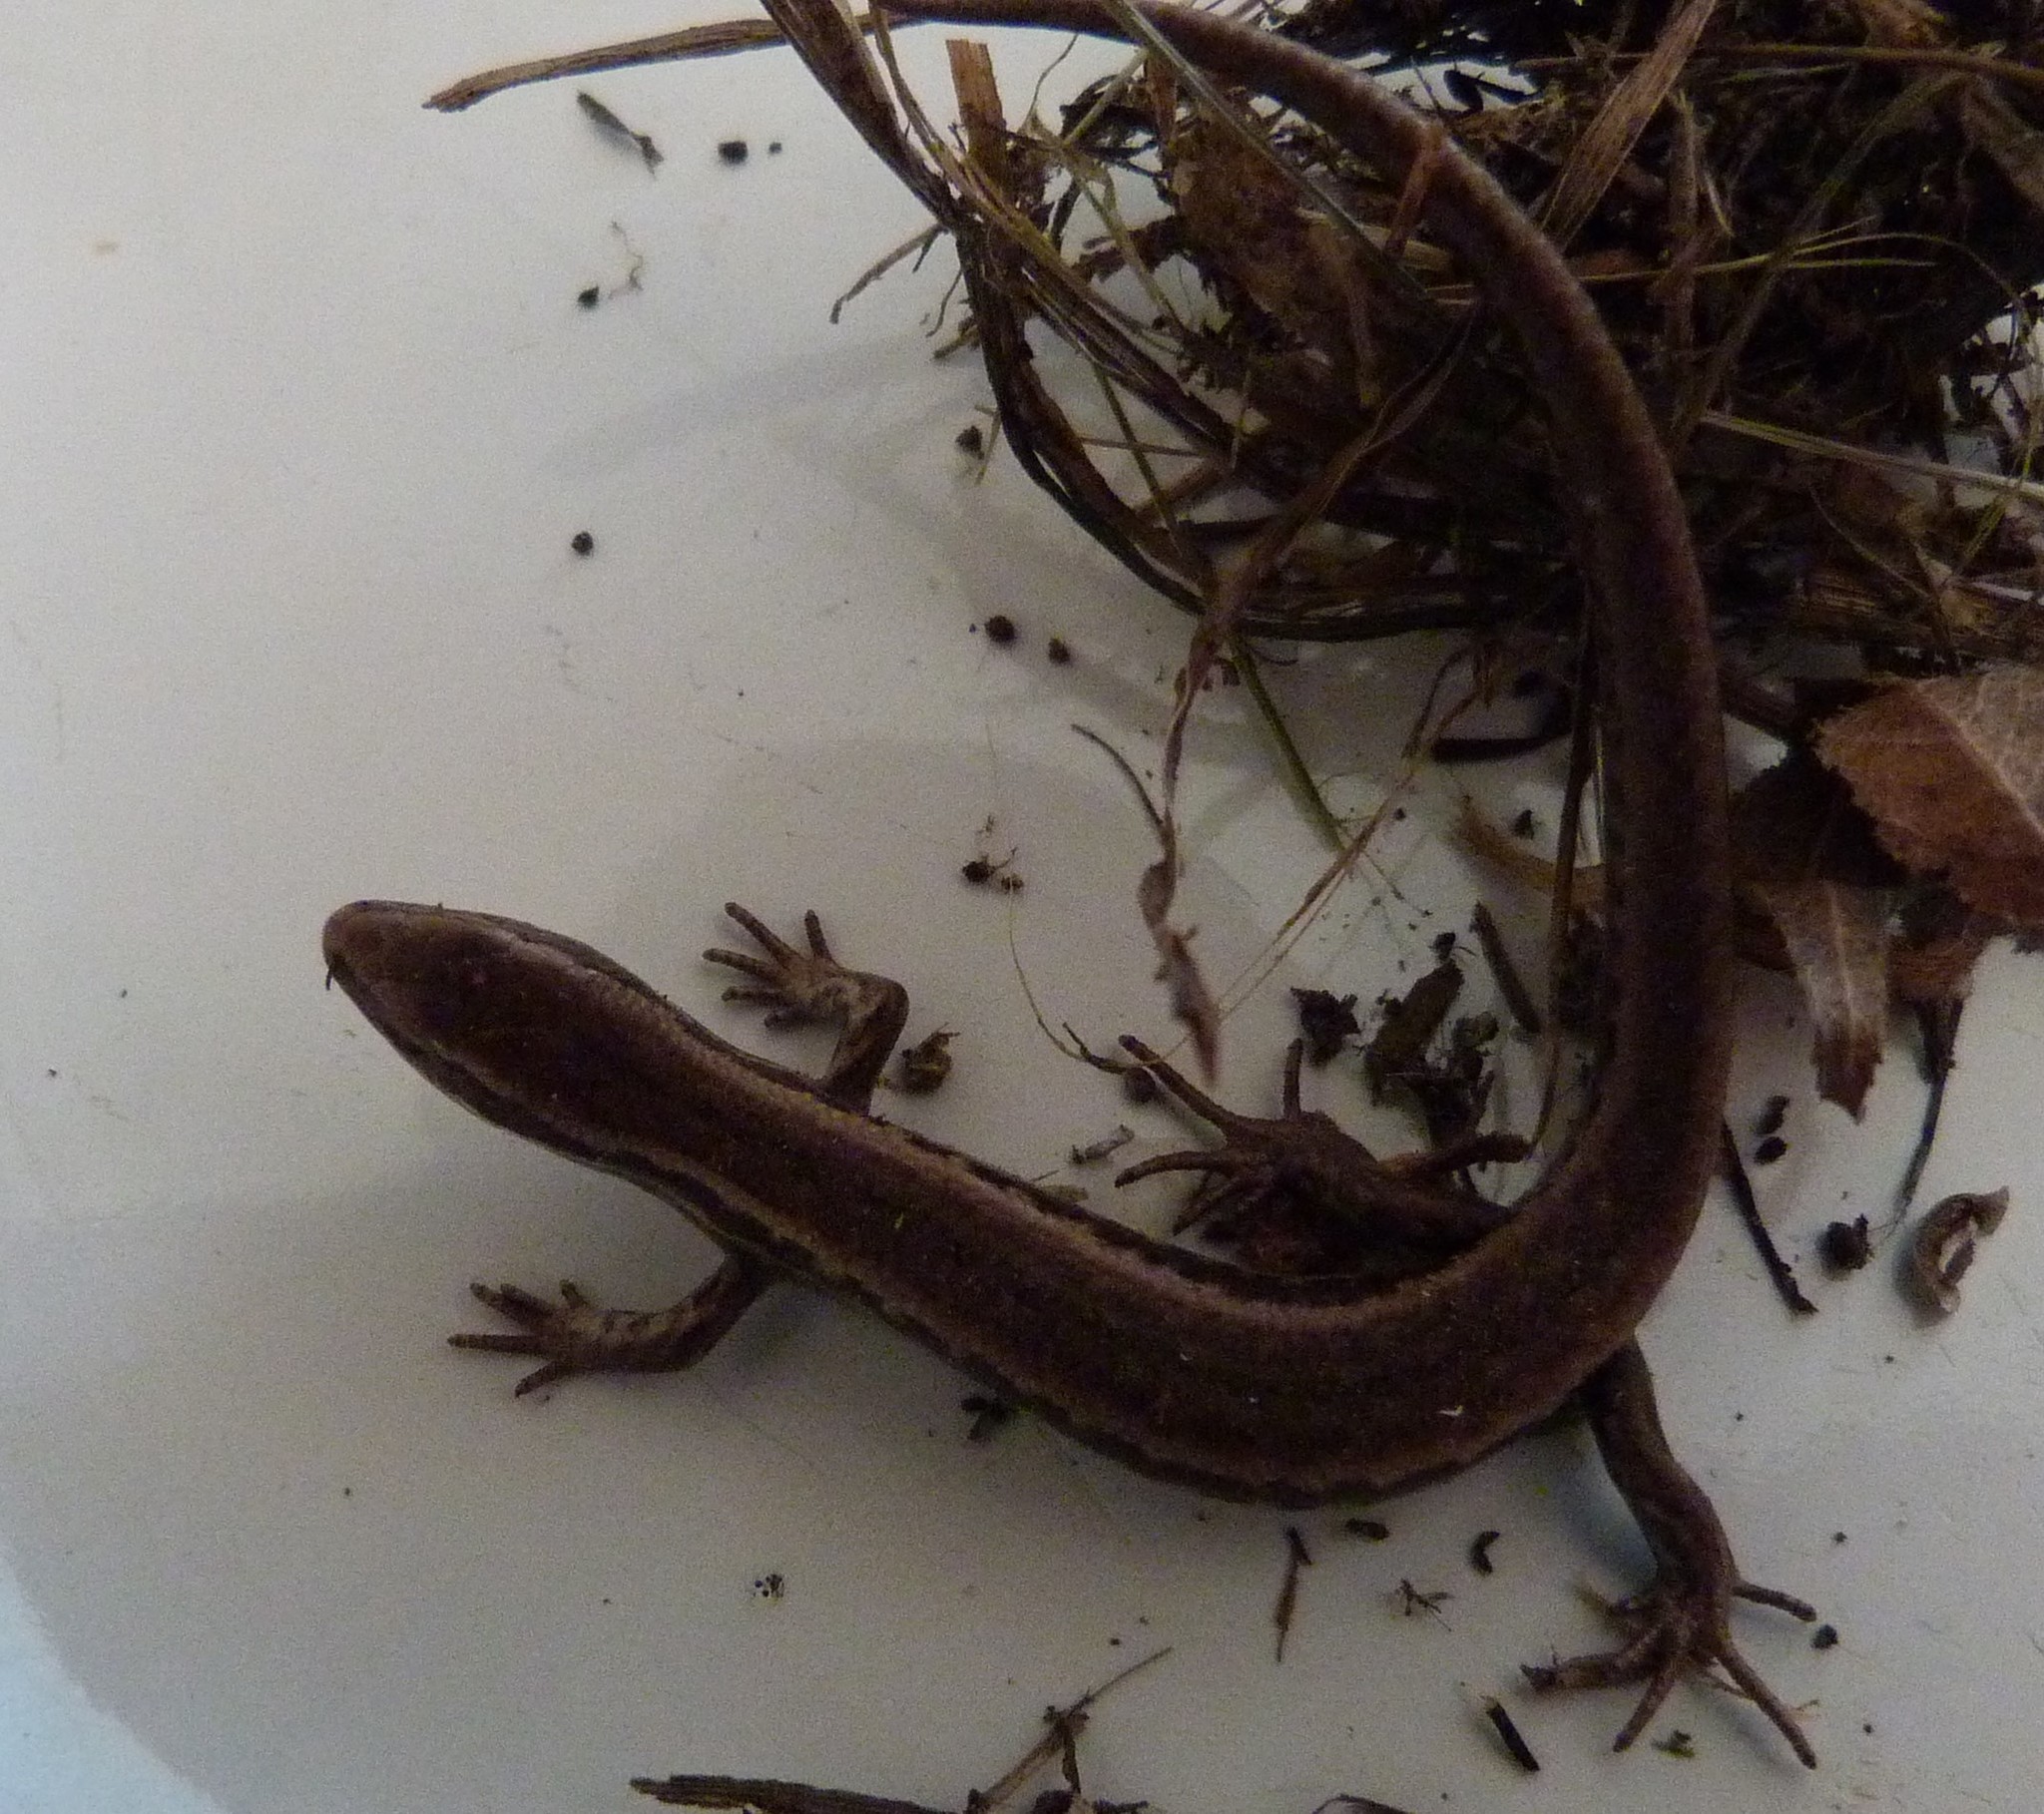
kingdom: Animalia
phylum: Chordata
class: Squamata
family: Scincidae
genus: Oligosoma
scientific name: Oligosoma polychroma
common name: Common new zealand skink
